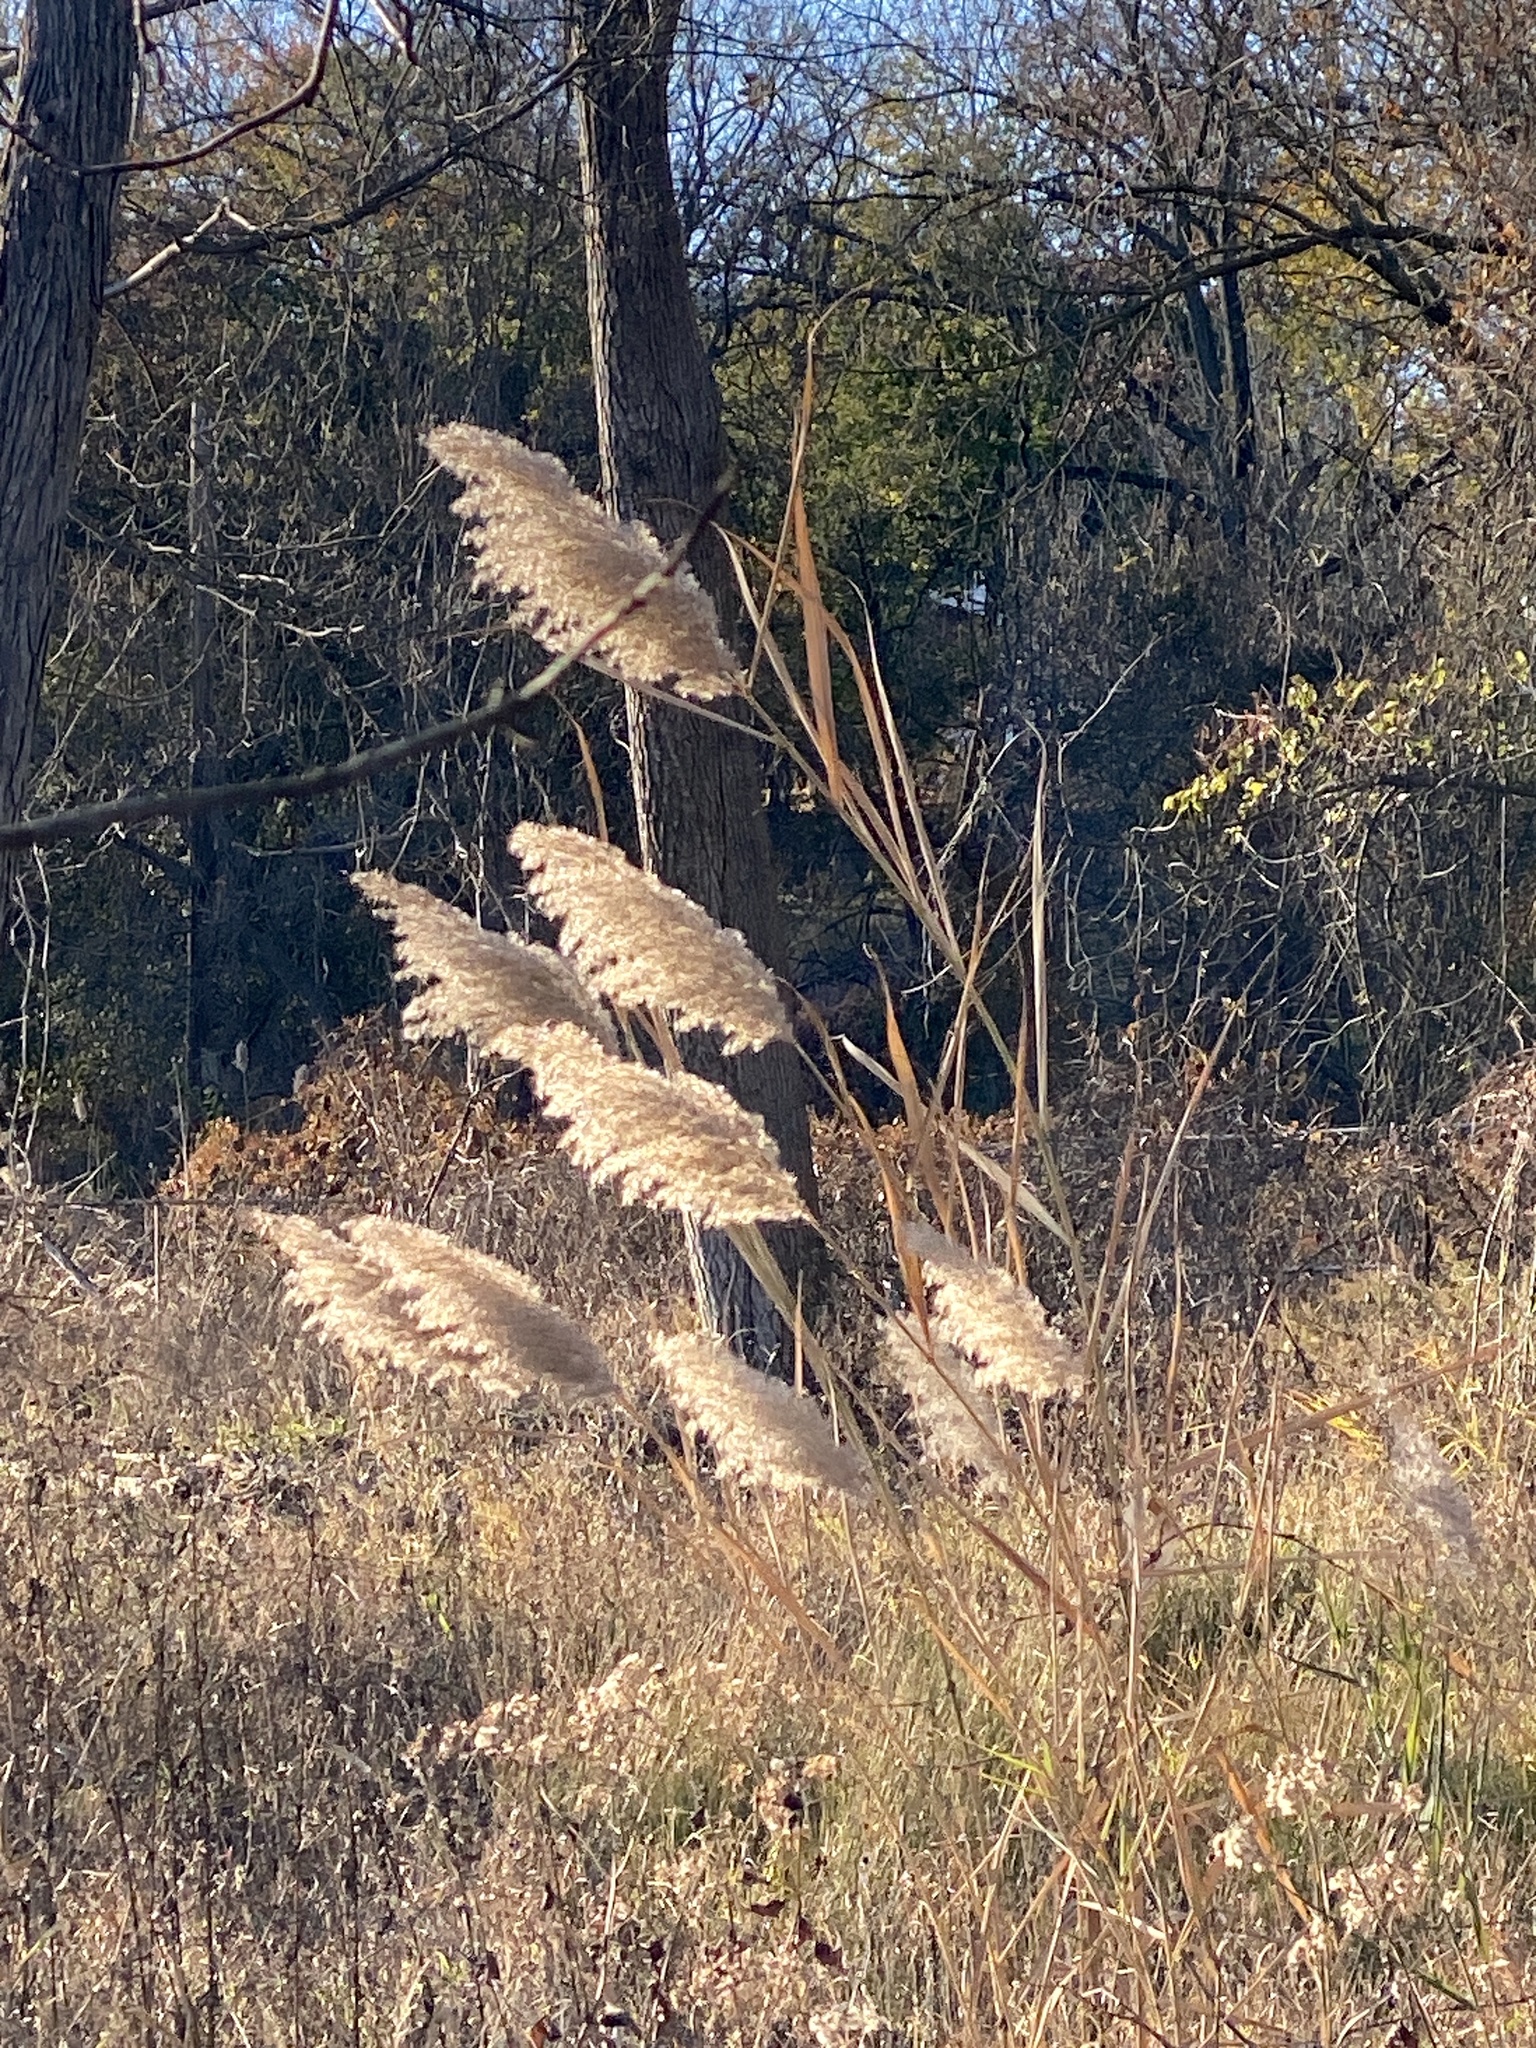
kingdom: Plantae
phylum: Tracheophyta
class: Liliopsida
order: Poales
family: Poaceae
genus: Phragmites
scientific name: Phragmites australis
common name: Common reed
